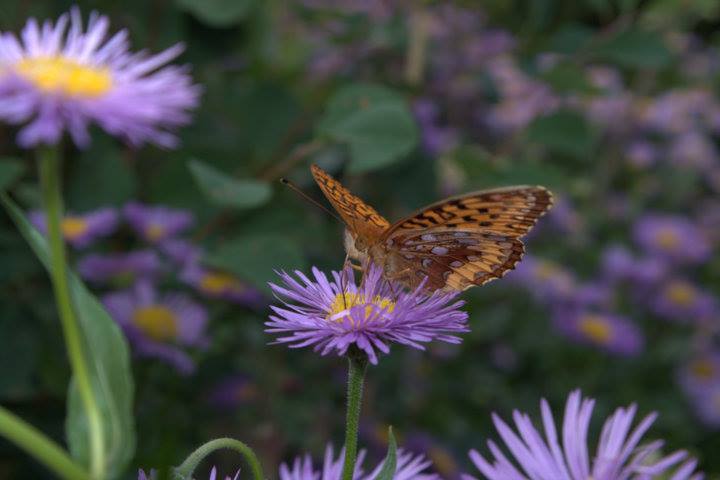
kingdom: Animalia
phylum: Arthropoda
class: Insecta
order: Lepidoptera
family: Nymphalidae
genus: Speyeria
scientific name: Speyeria cybele
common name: Great spangled fritillary
